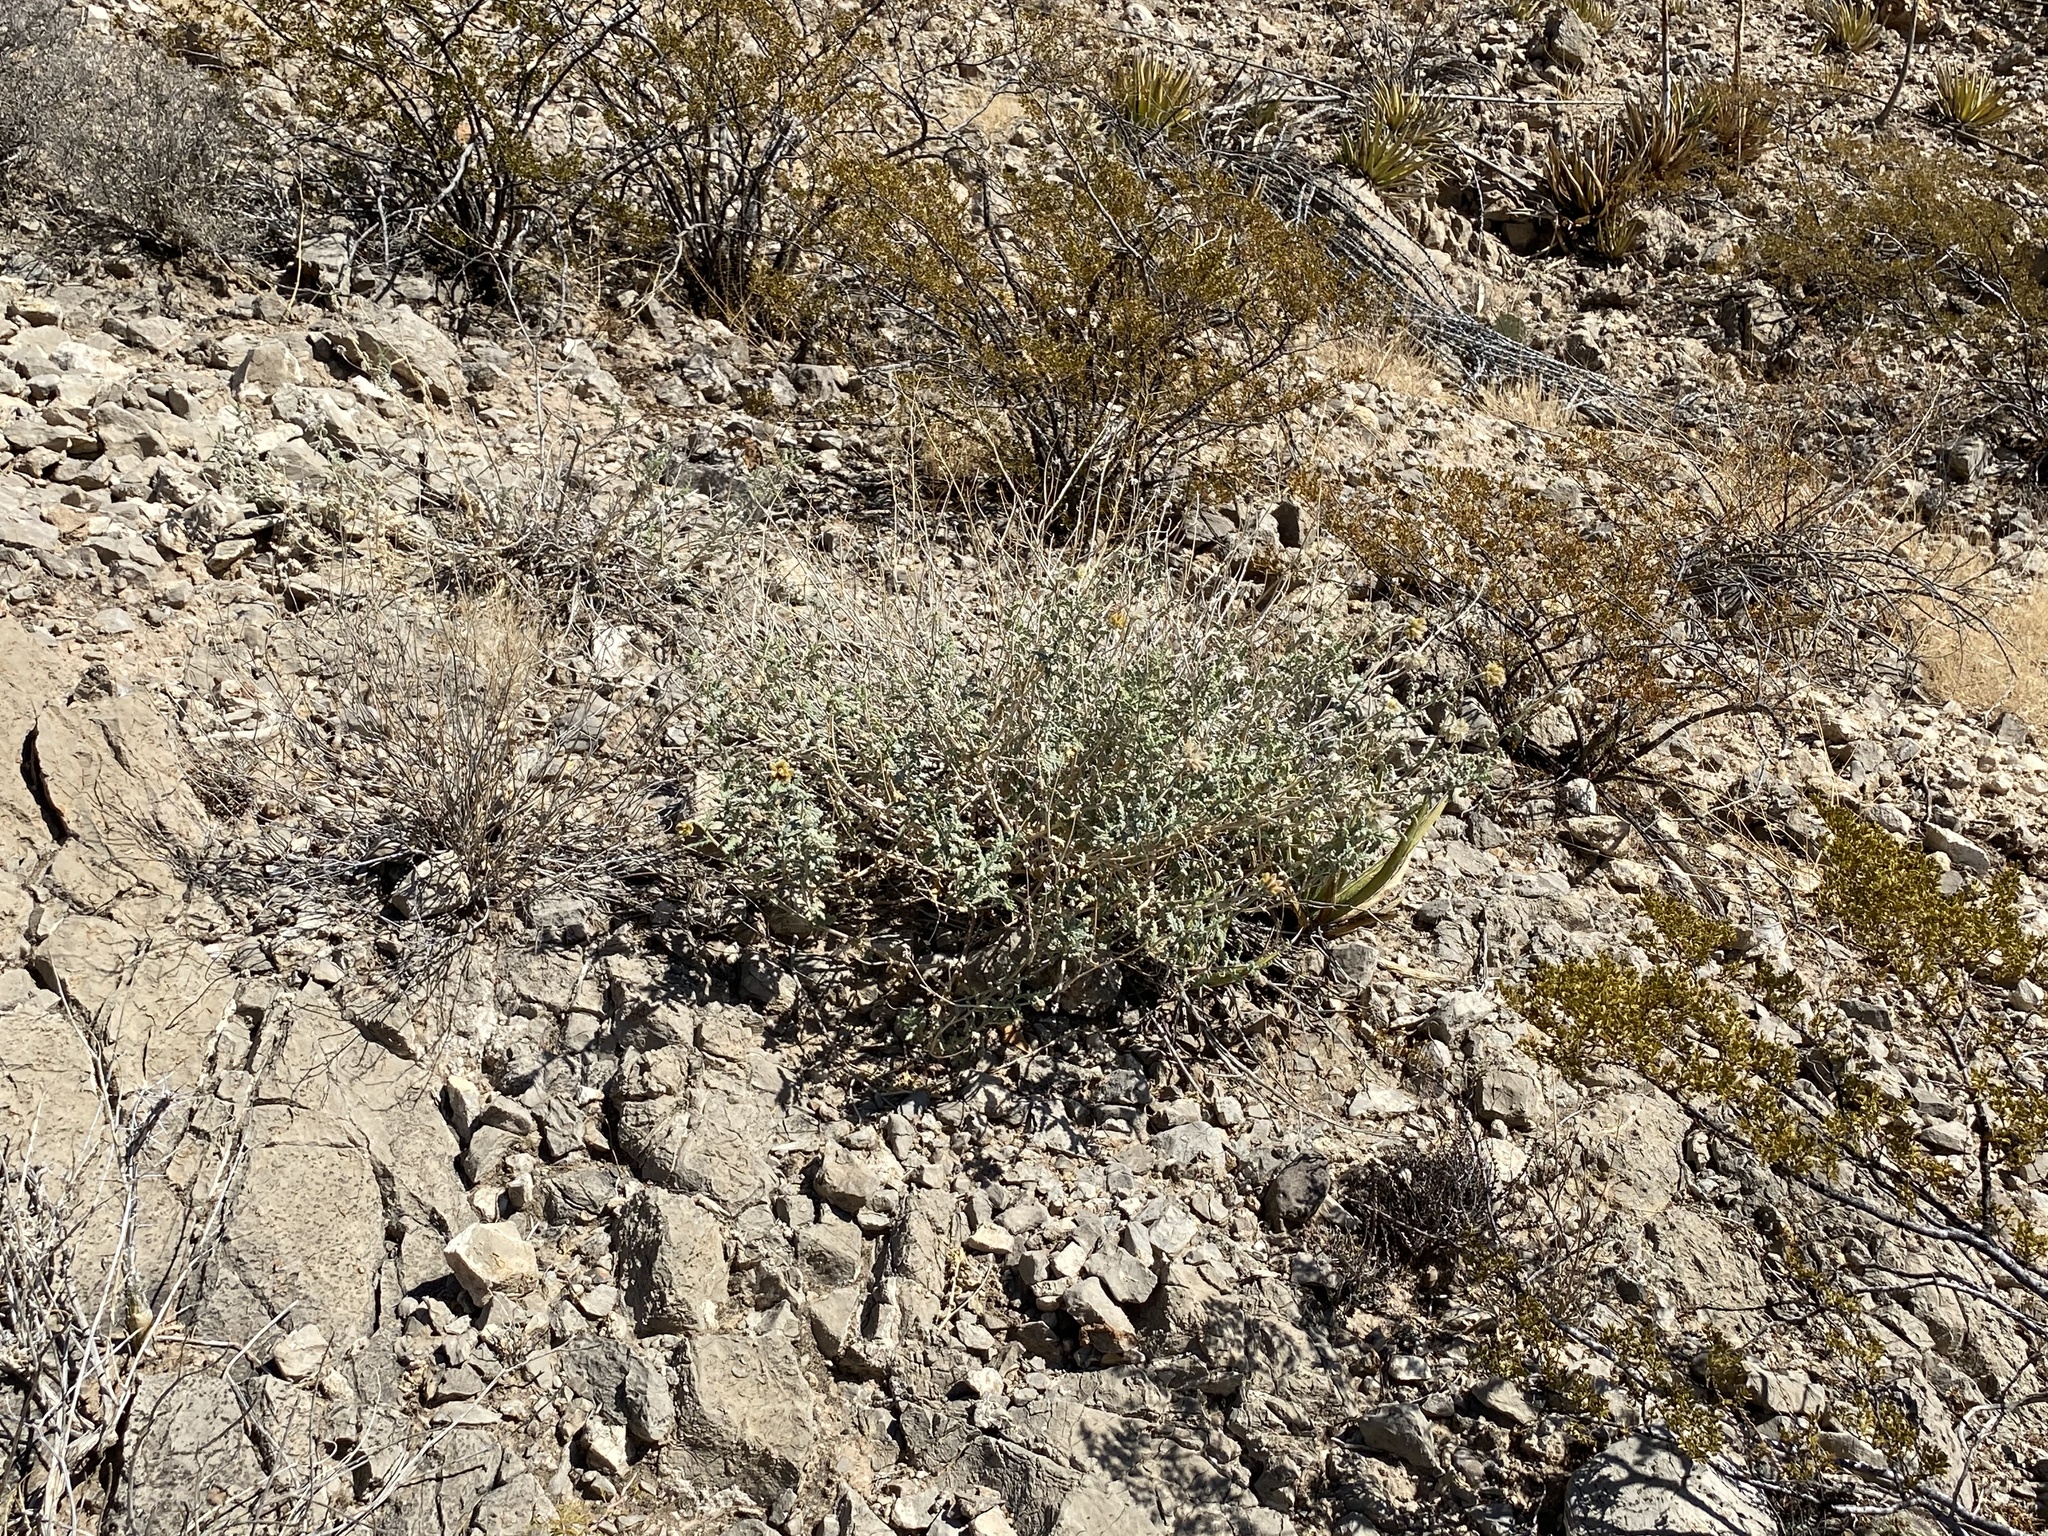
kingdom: Plantae
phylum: Tracheophyta
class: Magnoliopsida
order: Cornales
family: Loasaceae
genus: Cevallia
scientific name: Cevallia sinuata
